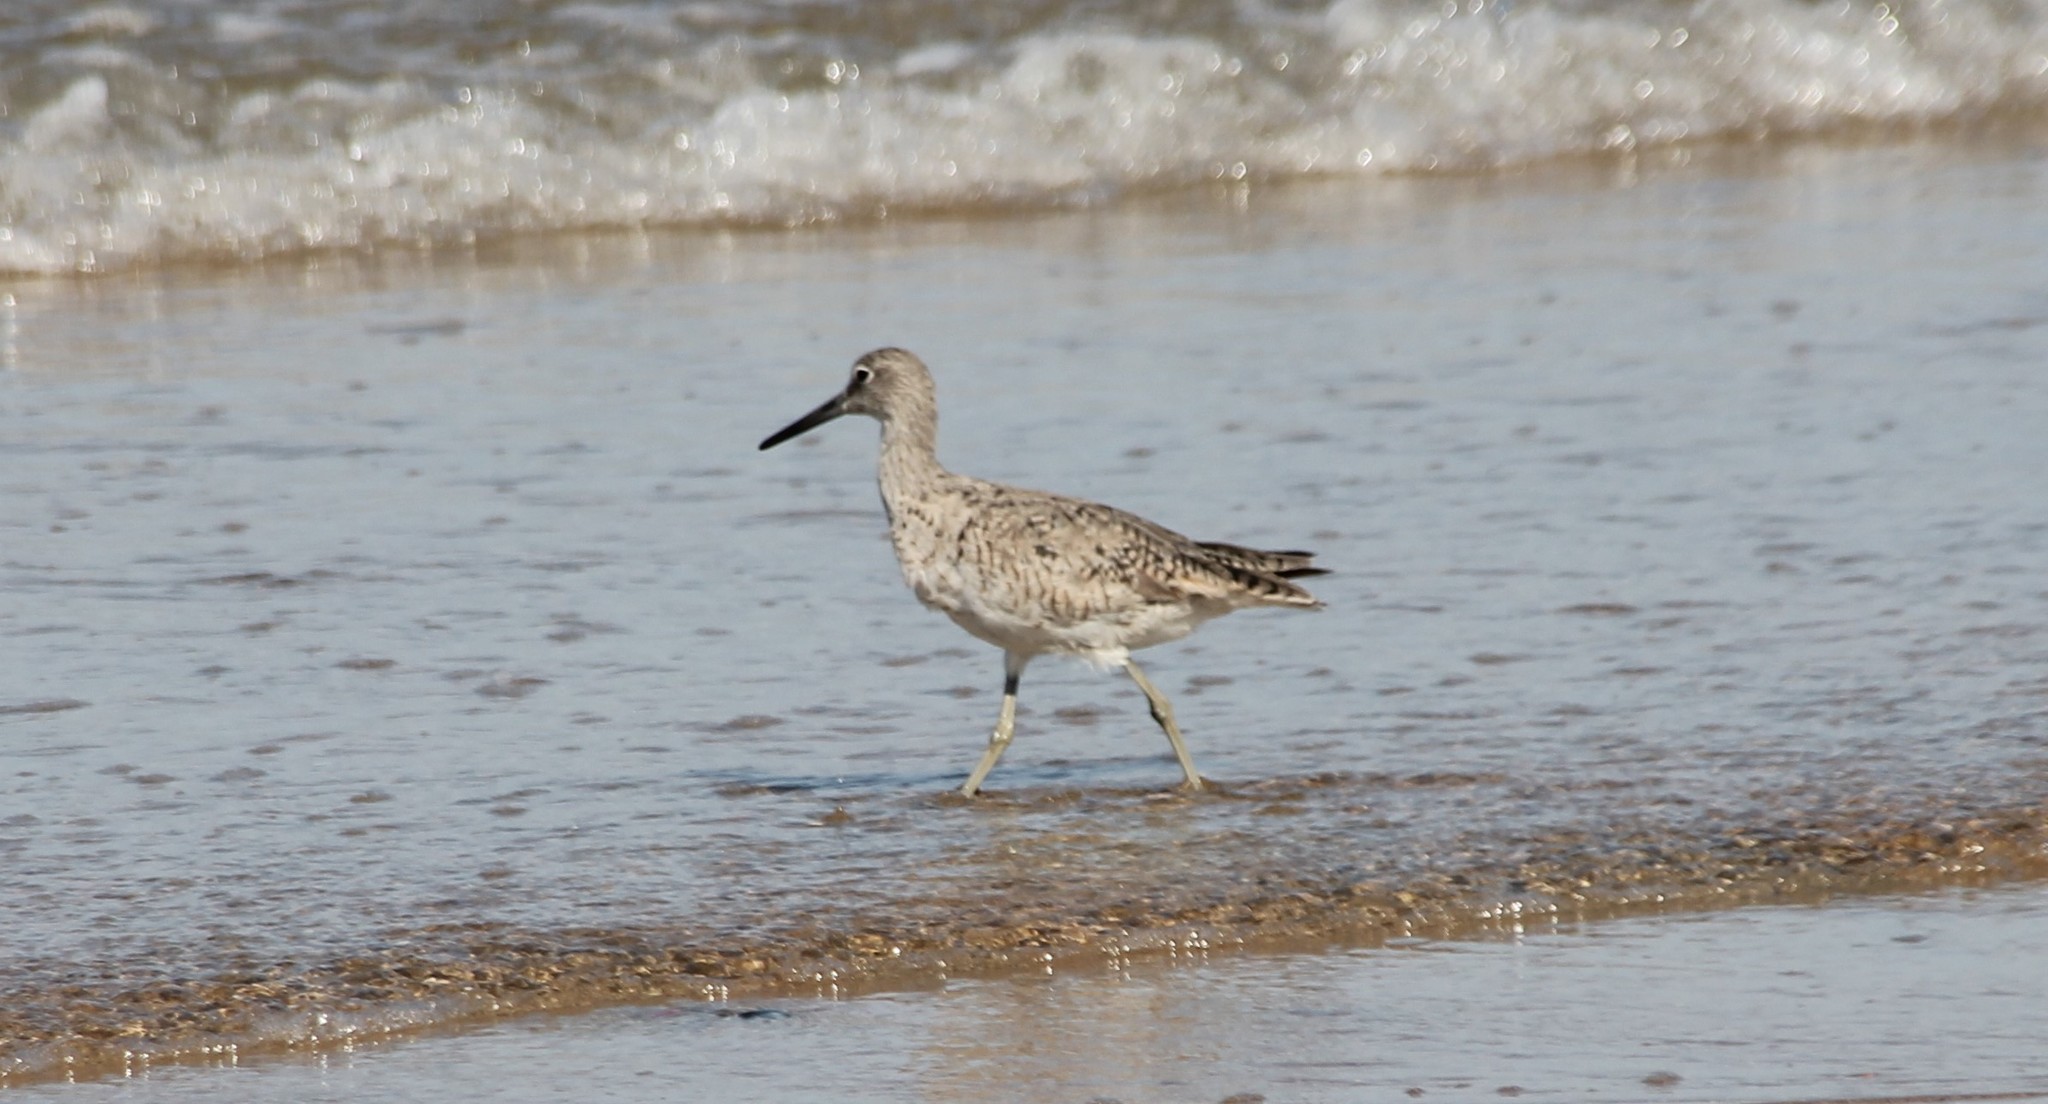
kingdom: Animalia
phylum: Chordata
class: Aves
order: Charadriiformes
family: Scolopacidae
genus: Tringa
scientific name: Tringa semipalmata
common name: Willet
